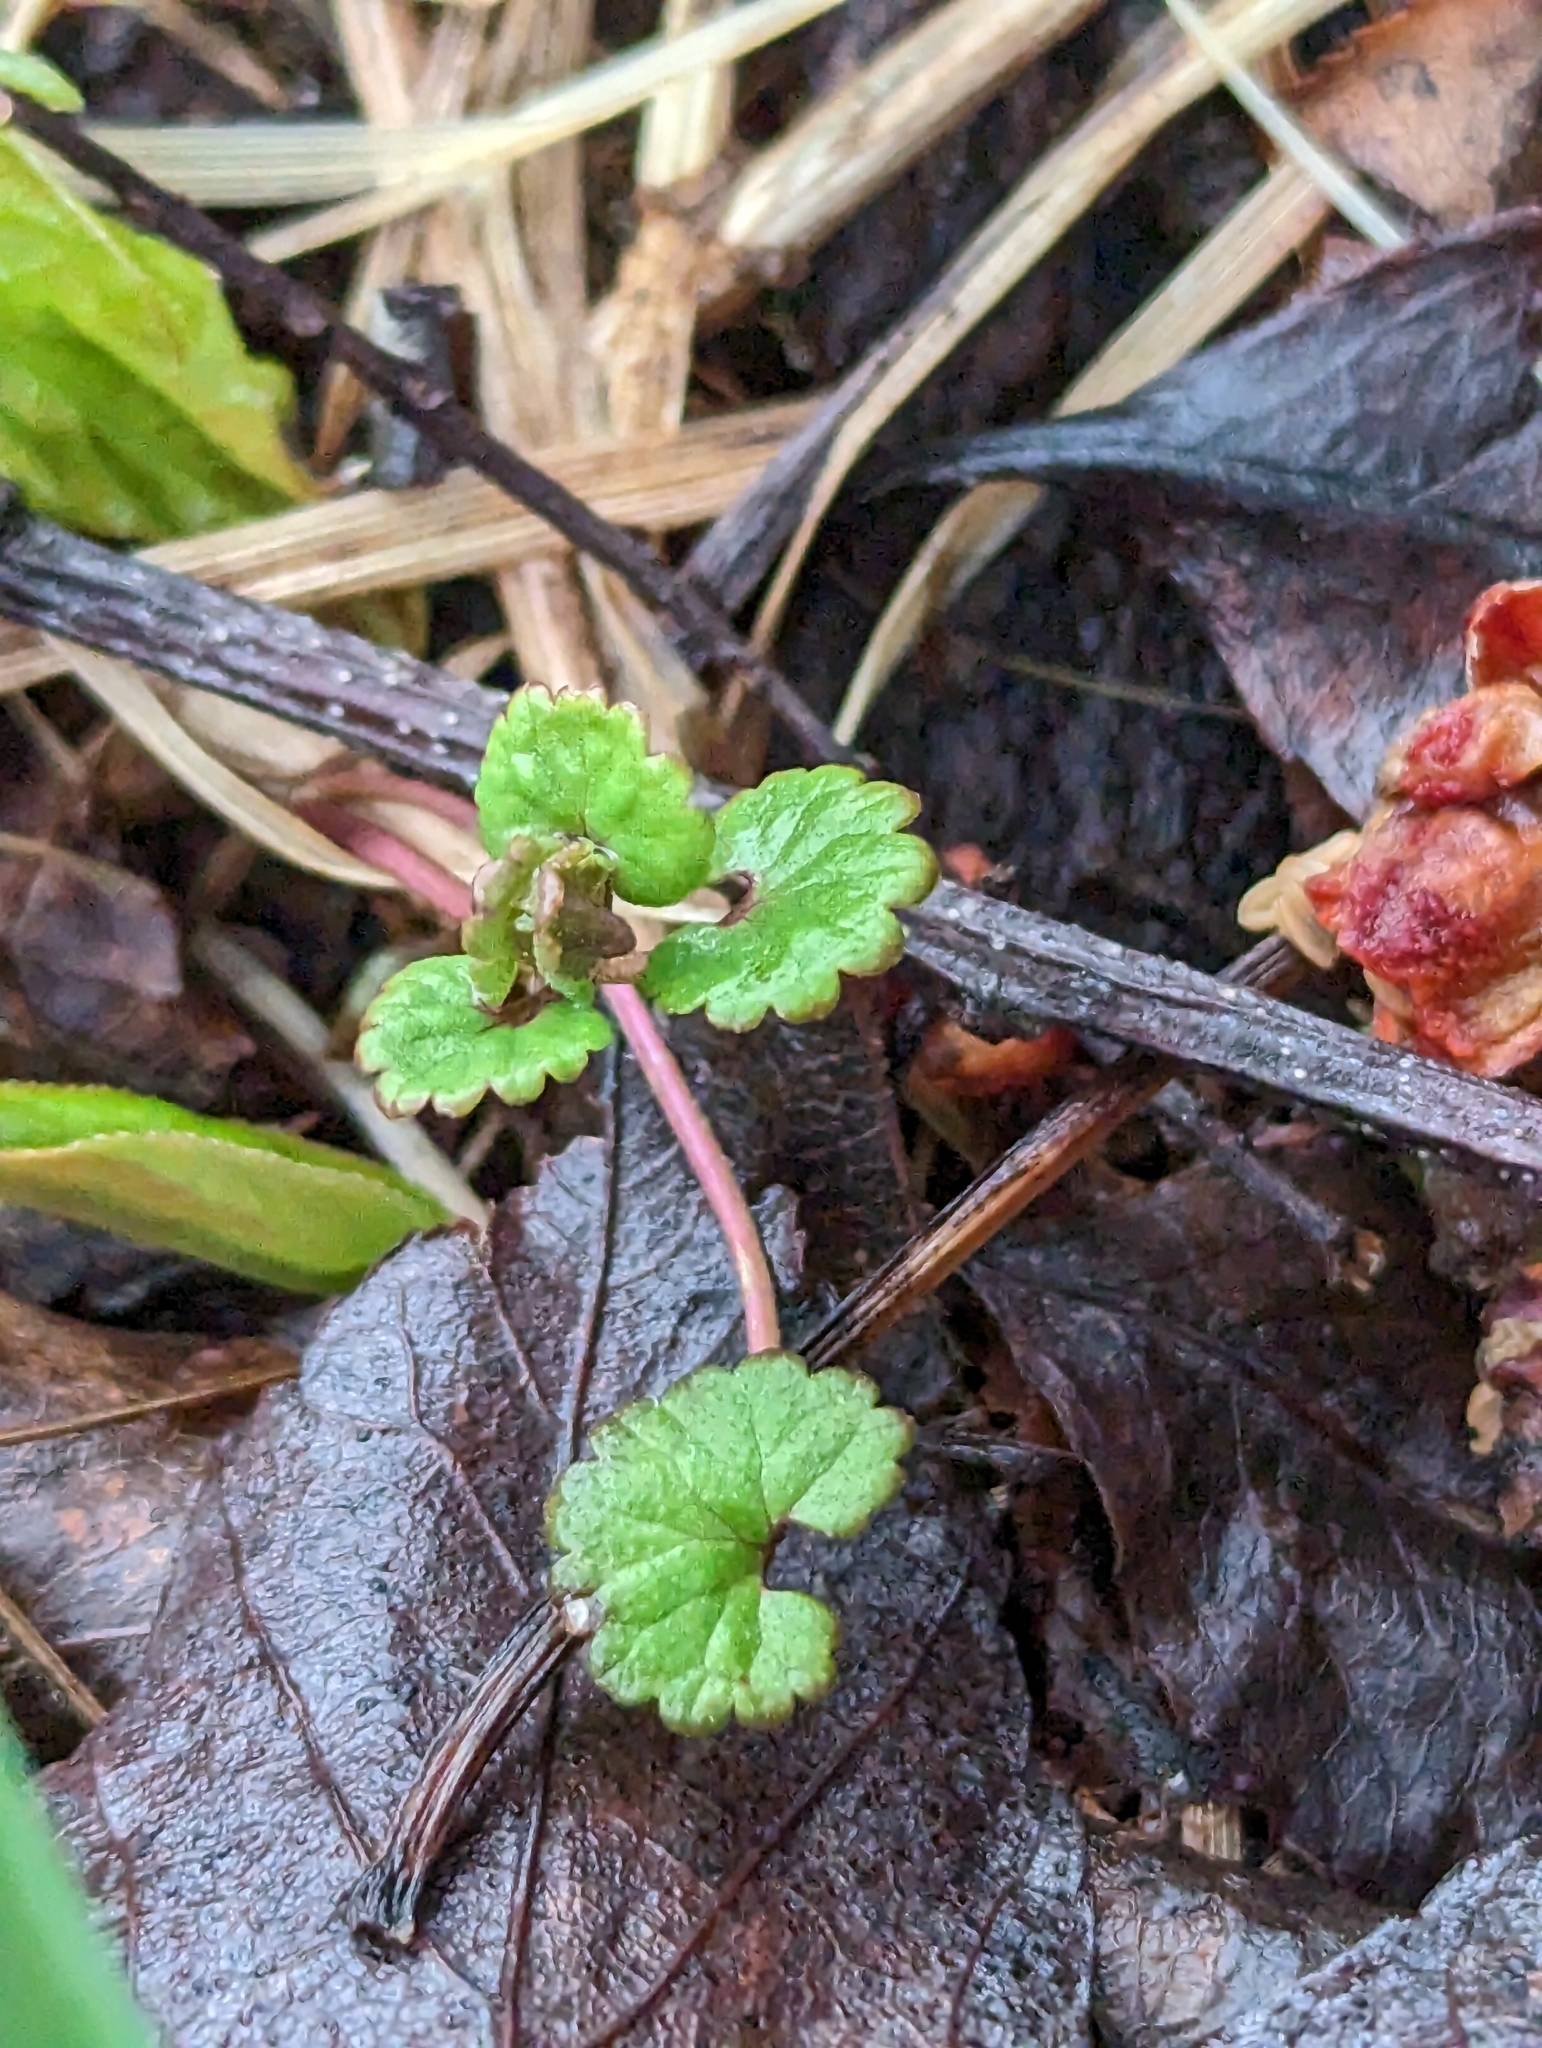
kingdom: Plantae
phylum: Tracheophyta
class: Magnoliopsida
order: Lamiales
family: Lamiaceae
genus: Glechoma
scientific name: Glechoma hederacea
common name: Ground ivy
